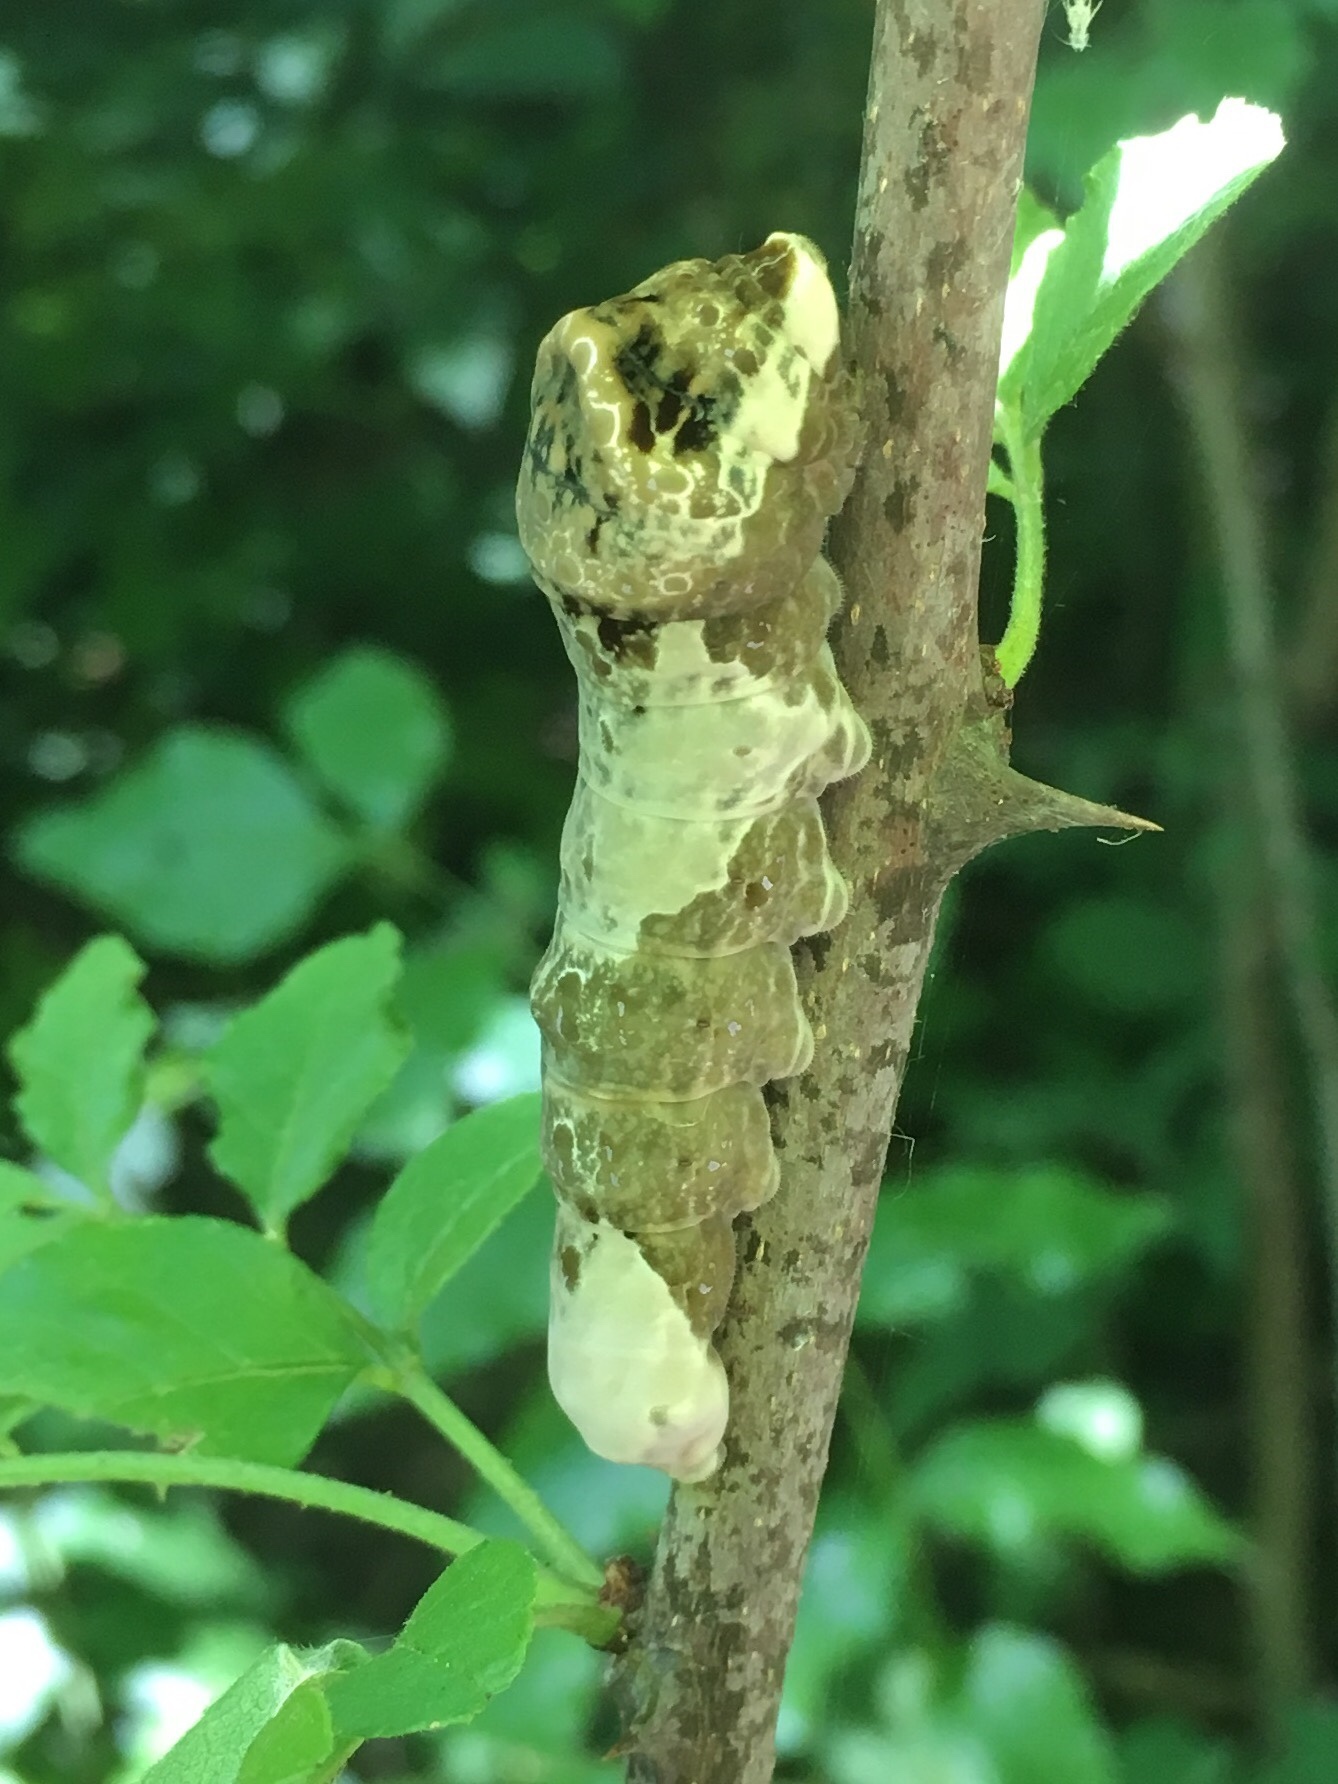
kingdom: Animalia
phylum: Arthropoda
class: Insecta
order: Lepidoptera
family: Papilionidae
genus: Papilio
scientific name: Papilio cresphontes
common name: Giant swallowtail
